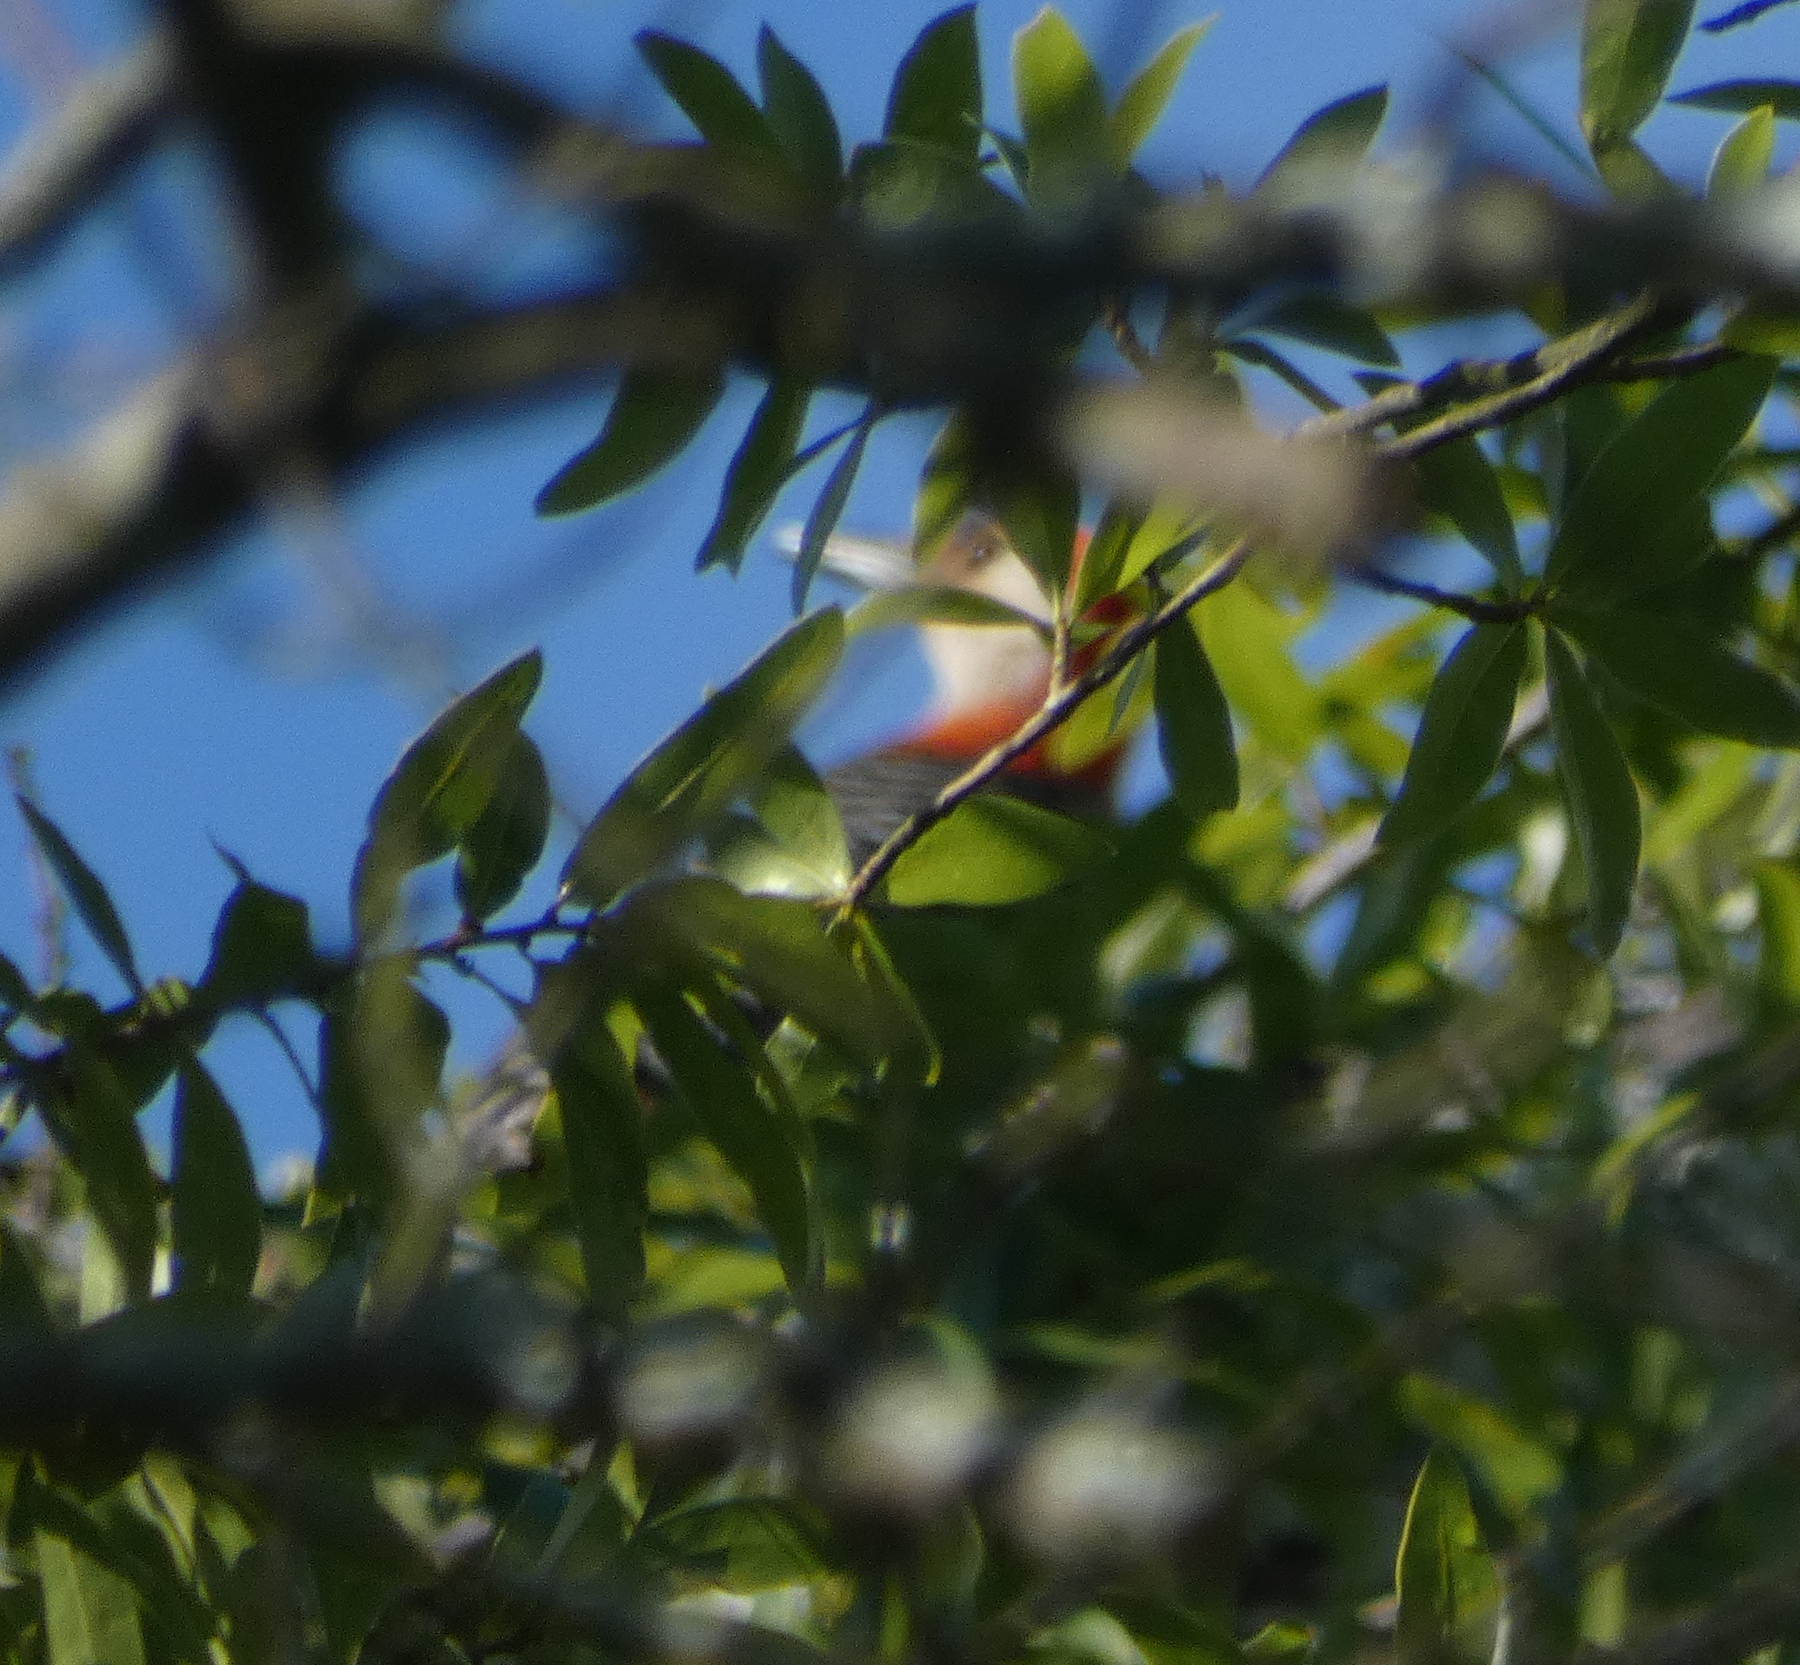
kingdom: Animalia
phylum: Chordata
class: Aves
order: Piciformes
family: Picidae
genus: Melanerpes
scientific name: Melanerpes carolinus
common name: Red-bellied woodpecker
